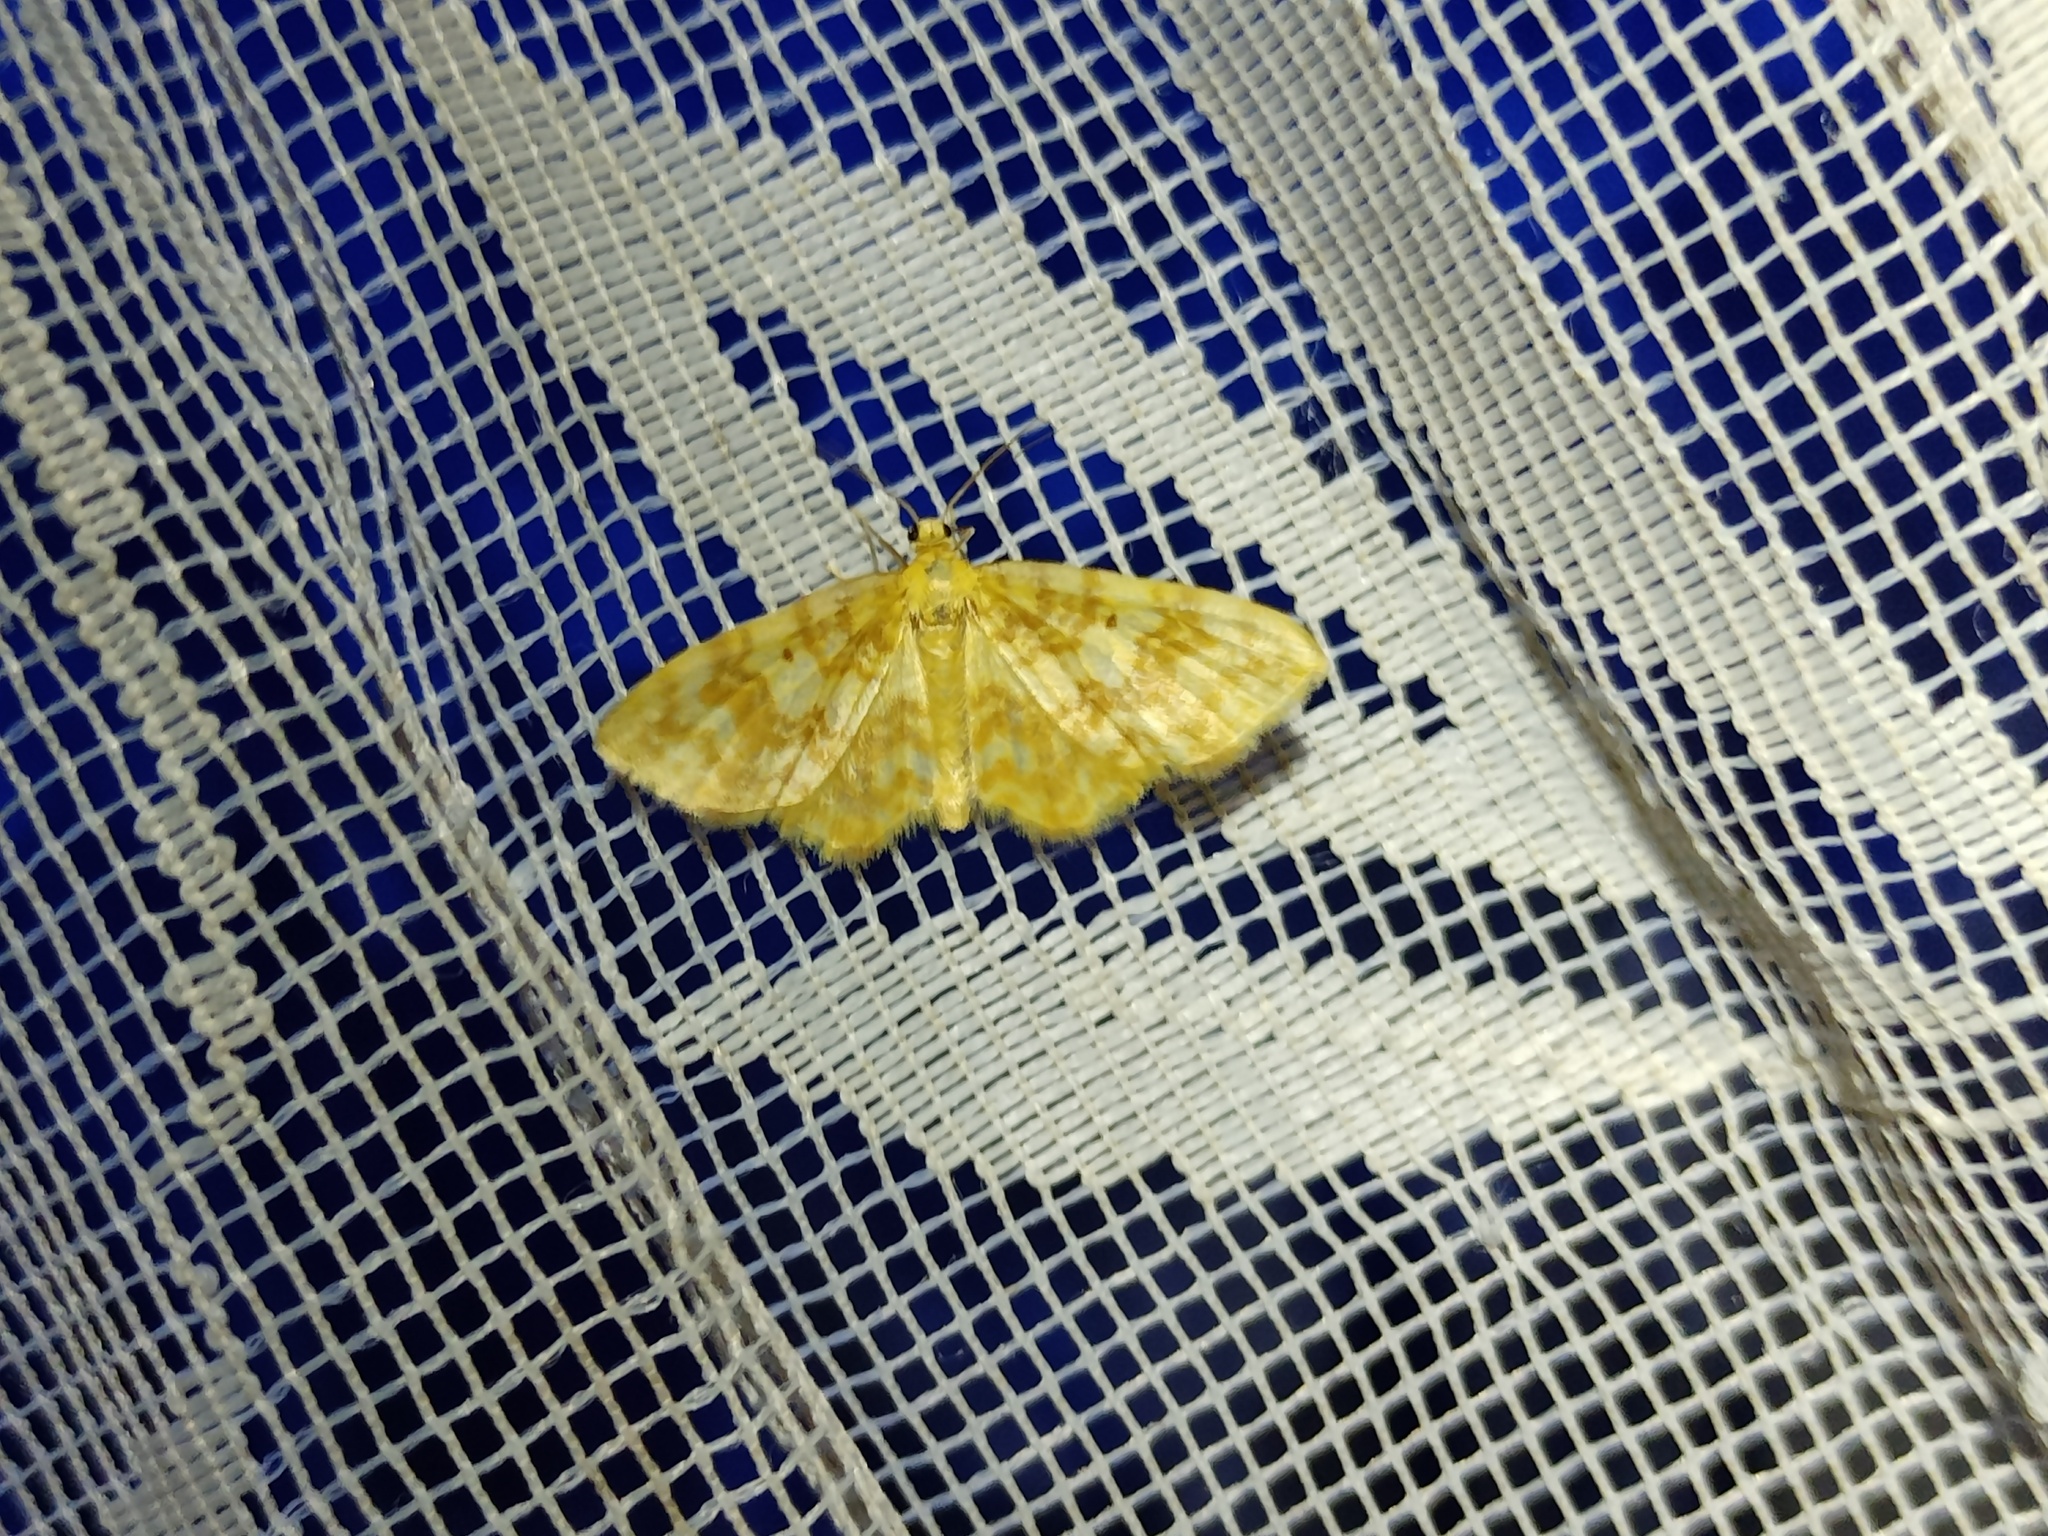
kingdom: Animalia
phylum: Arthropoda
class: Insecta
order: Lepidoptera
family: Geometridae
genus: Hydrelia
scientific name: Hydrelia flammeolaria
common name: Small yellow wave
